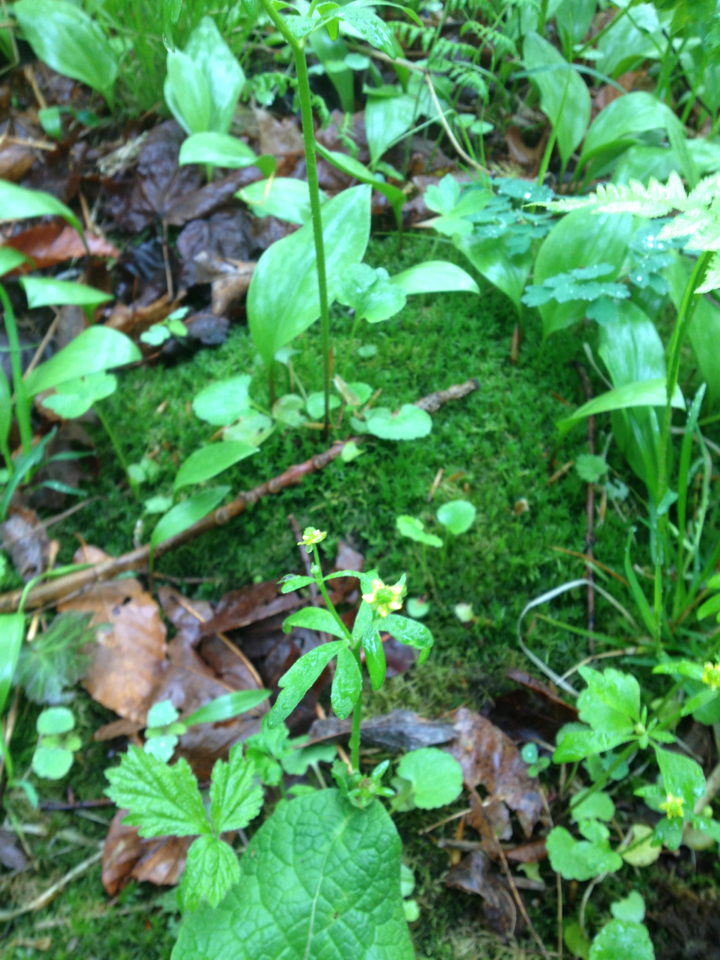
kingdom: Plantae
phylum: Tracheophyta
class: Magnoliopsida
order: Ranunculales
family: Ranunculaceae
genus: Ranunculus
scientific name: Ranunculus abortivus
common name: Early wood buttercup
